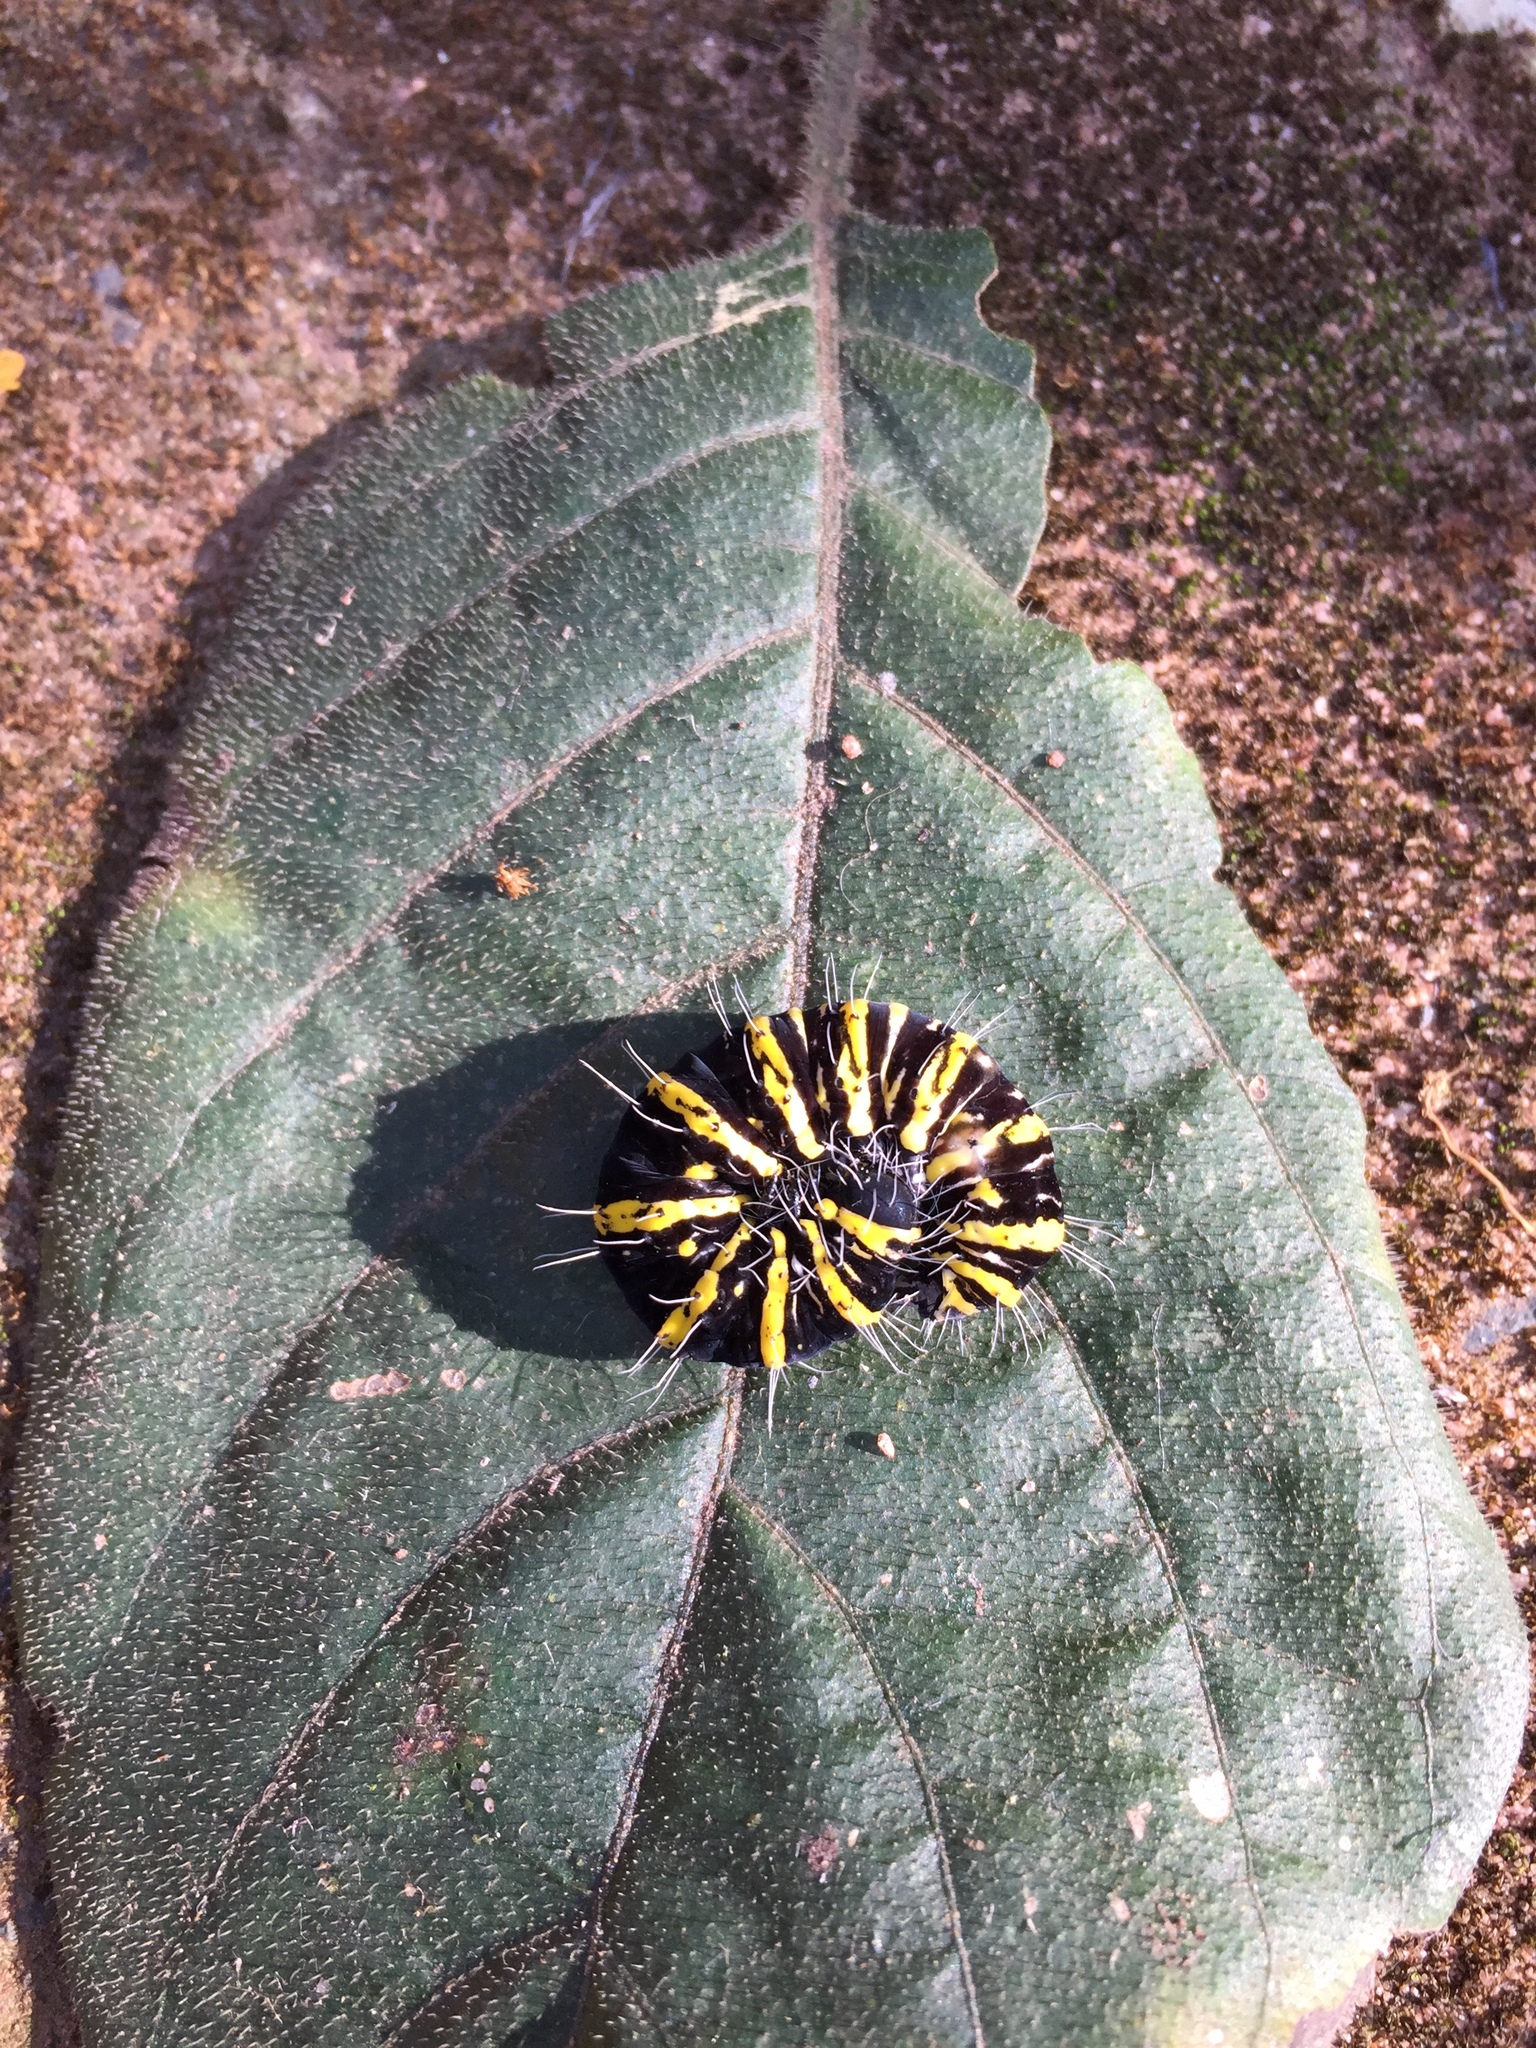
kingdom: Animalia
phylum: Arthropoda
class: Insecta
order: Lepidoptera
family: Erebidae
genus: Egybolis
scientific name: Egybolis vaillantina
